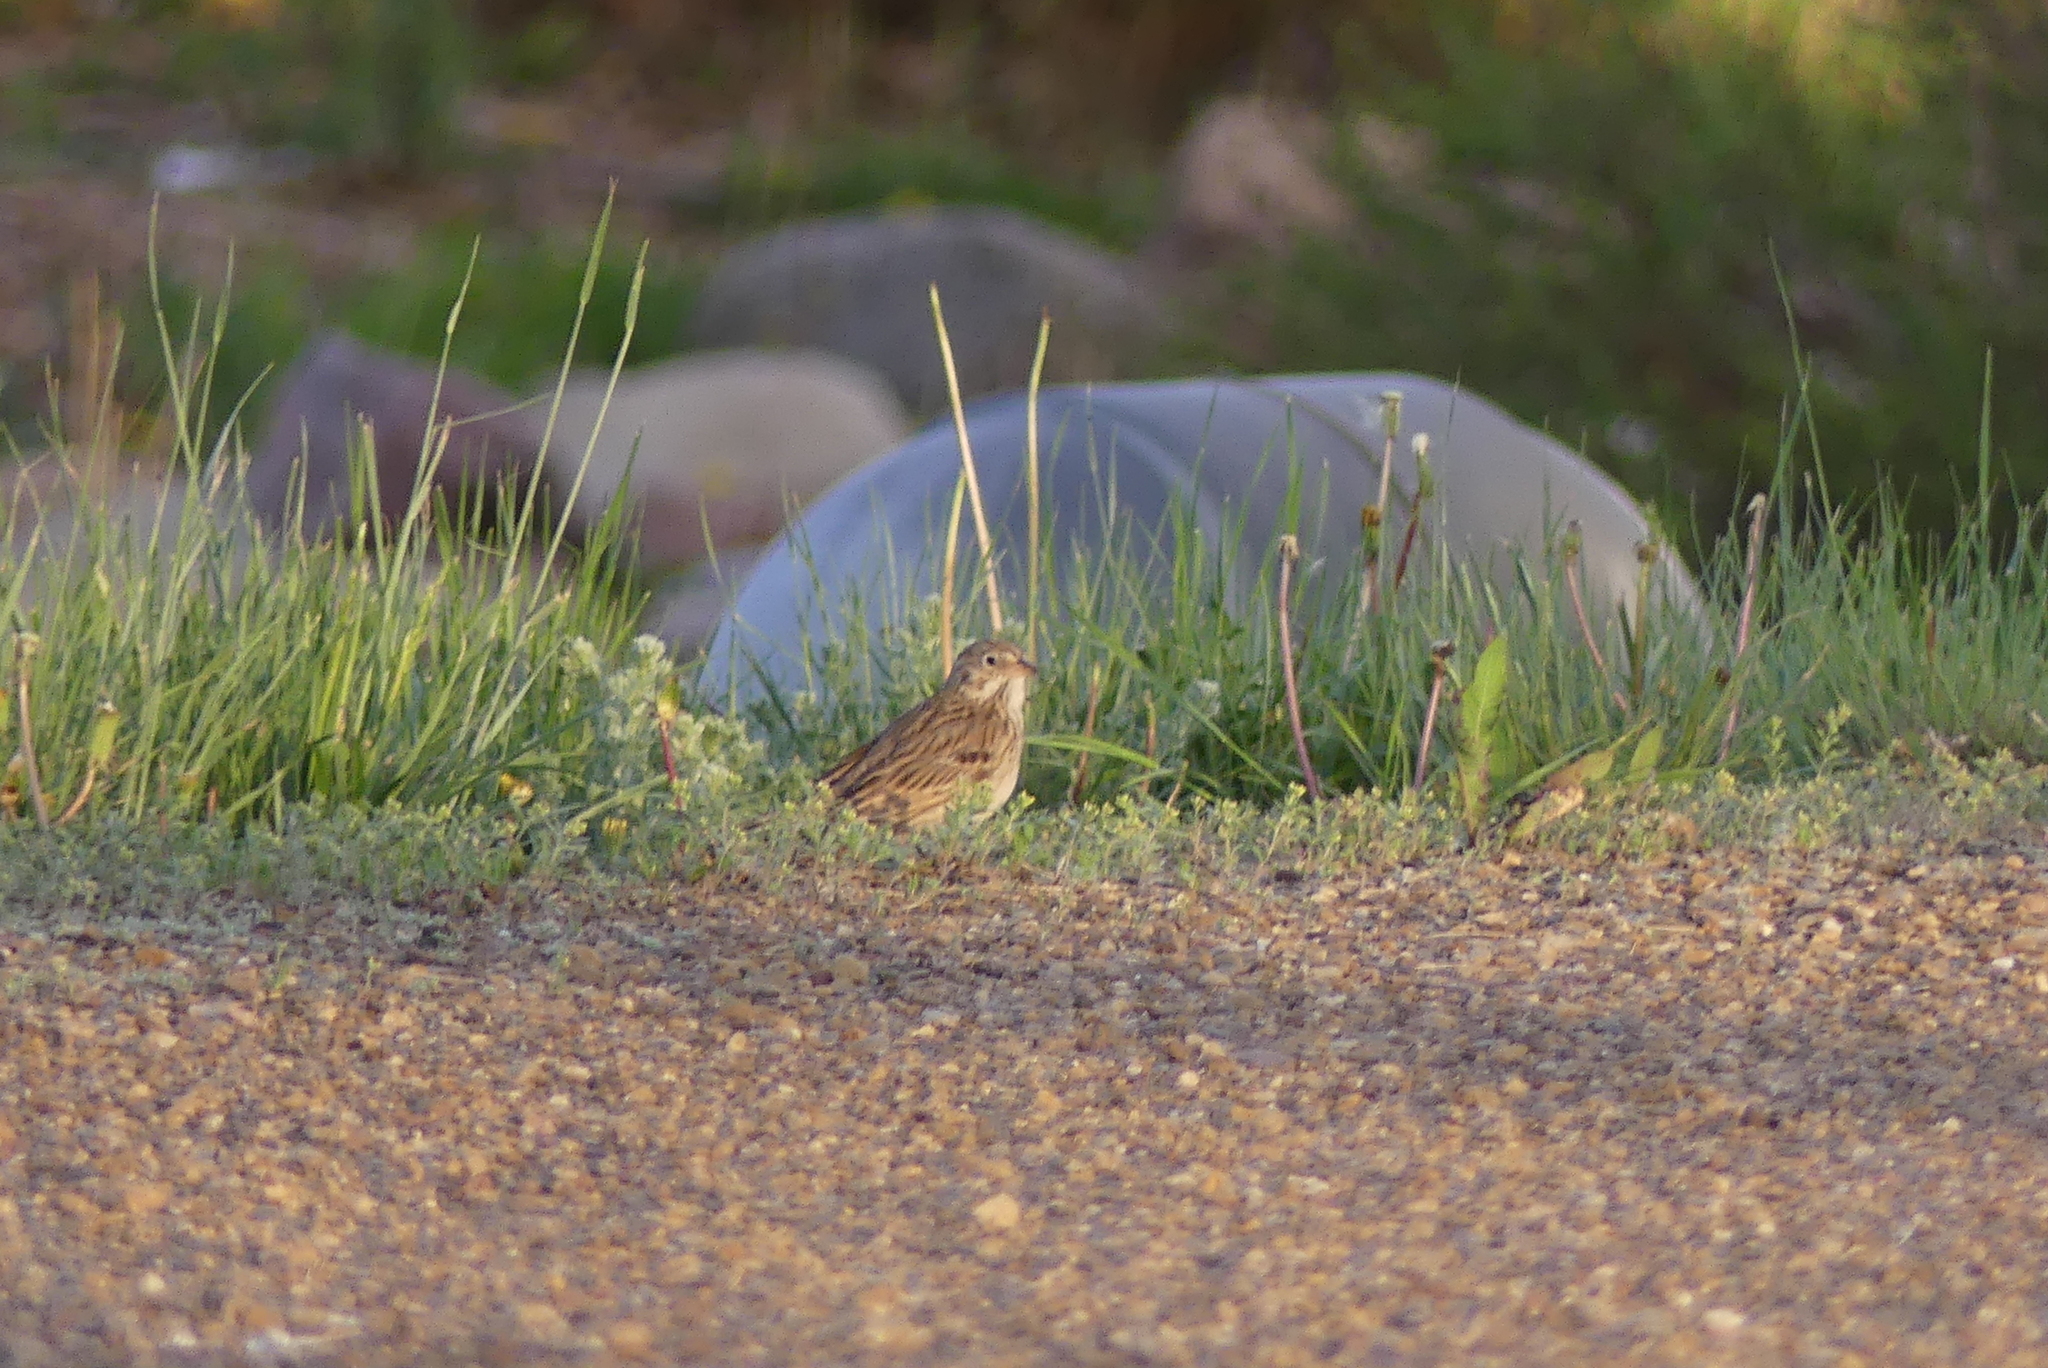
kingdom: Animalia
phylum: Chordata
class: Aves
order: Passeriformes
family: Passerellidae
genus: Pooecetes
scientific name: Pooecetes gramineus
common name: Vesper sparrow
